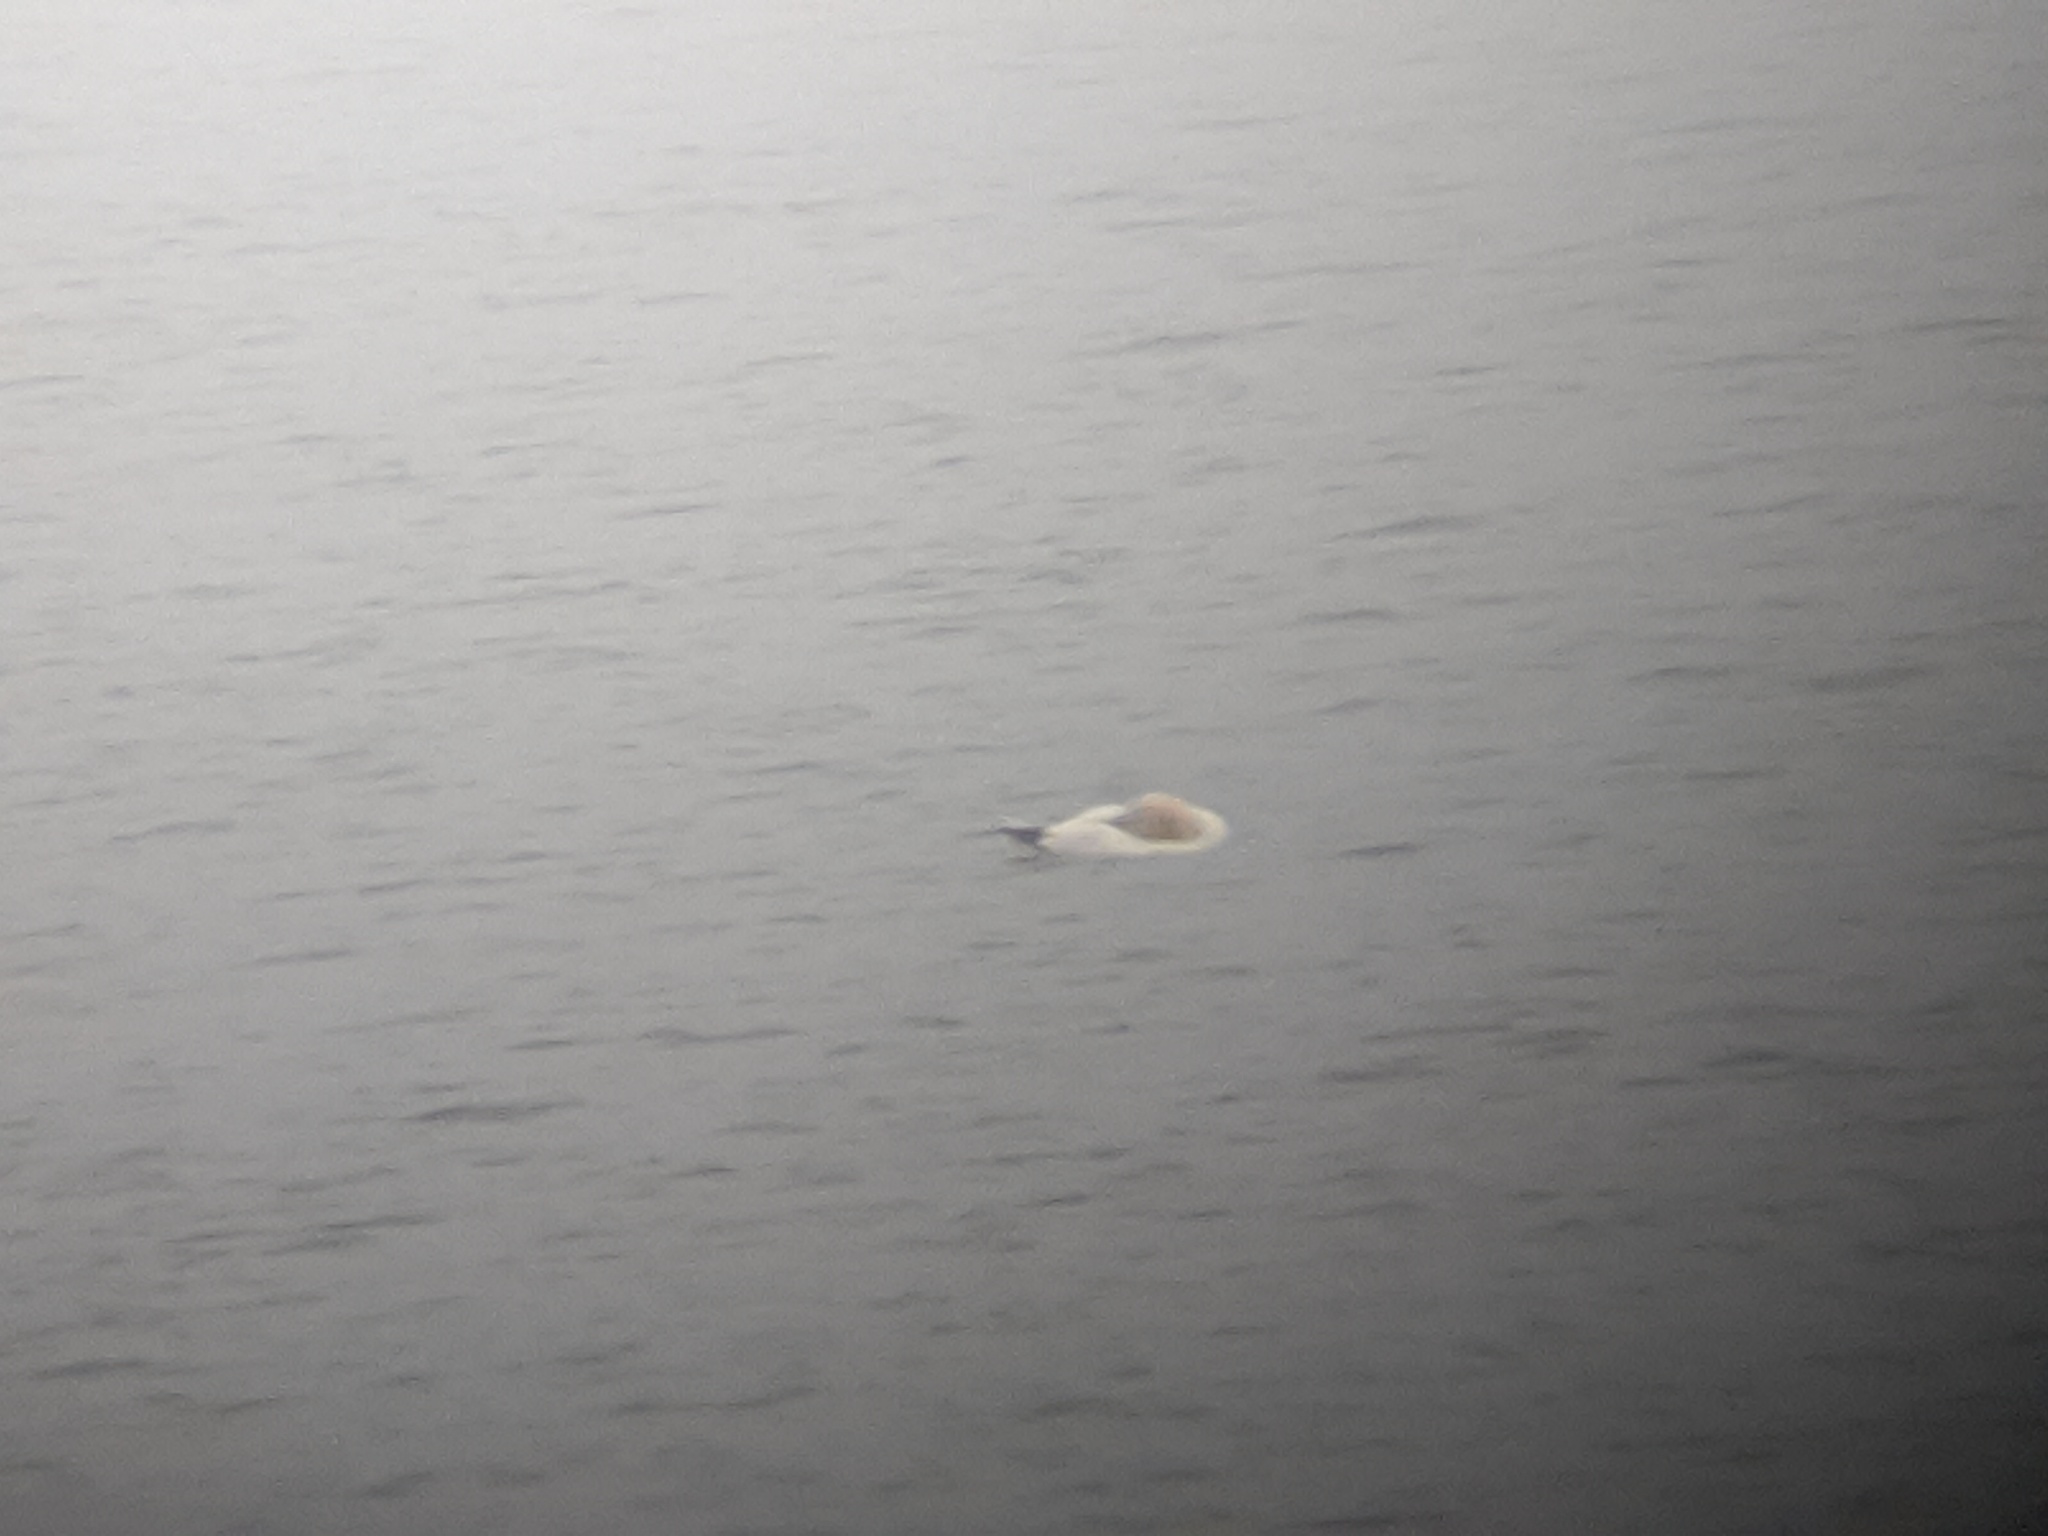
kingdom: Animalia
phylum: Chordata
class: Aves
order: Suliformes
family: Sulidae
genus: Morus
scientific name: Morus bassanus
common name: Northern gannet
